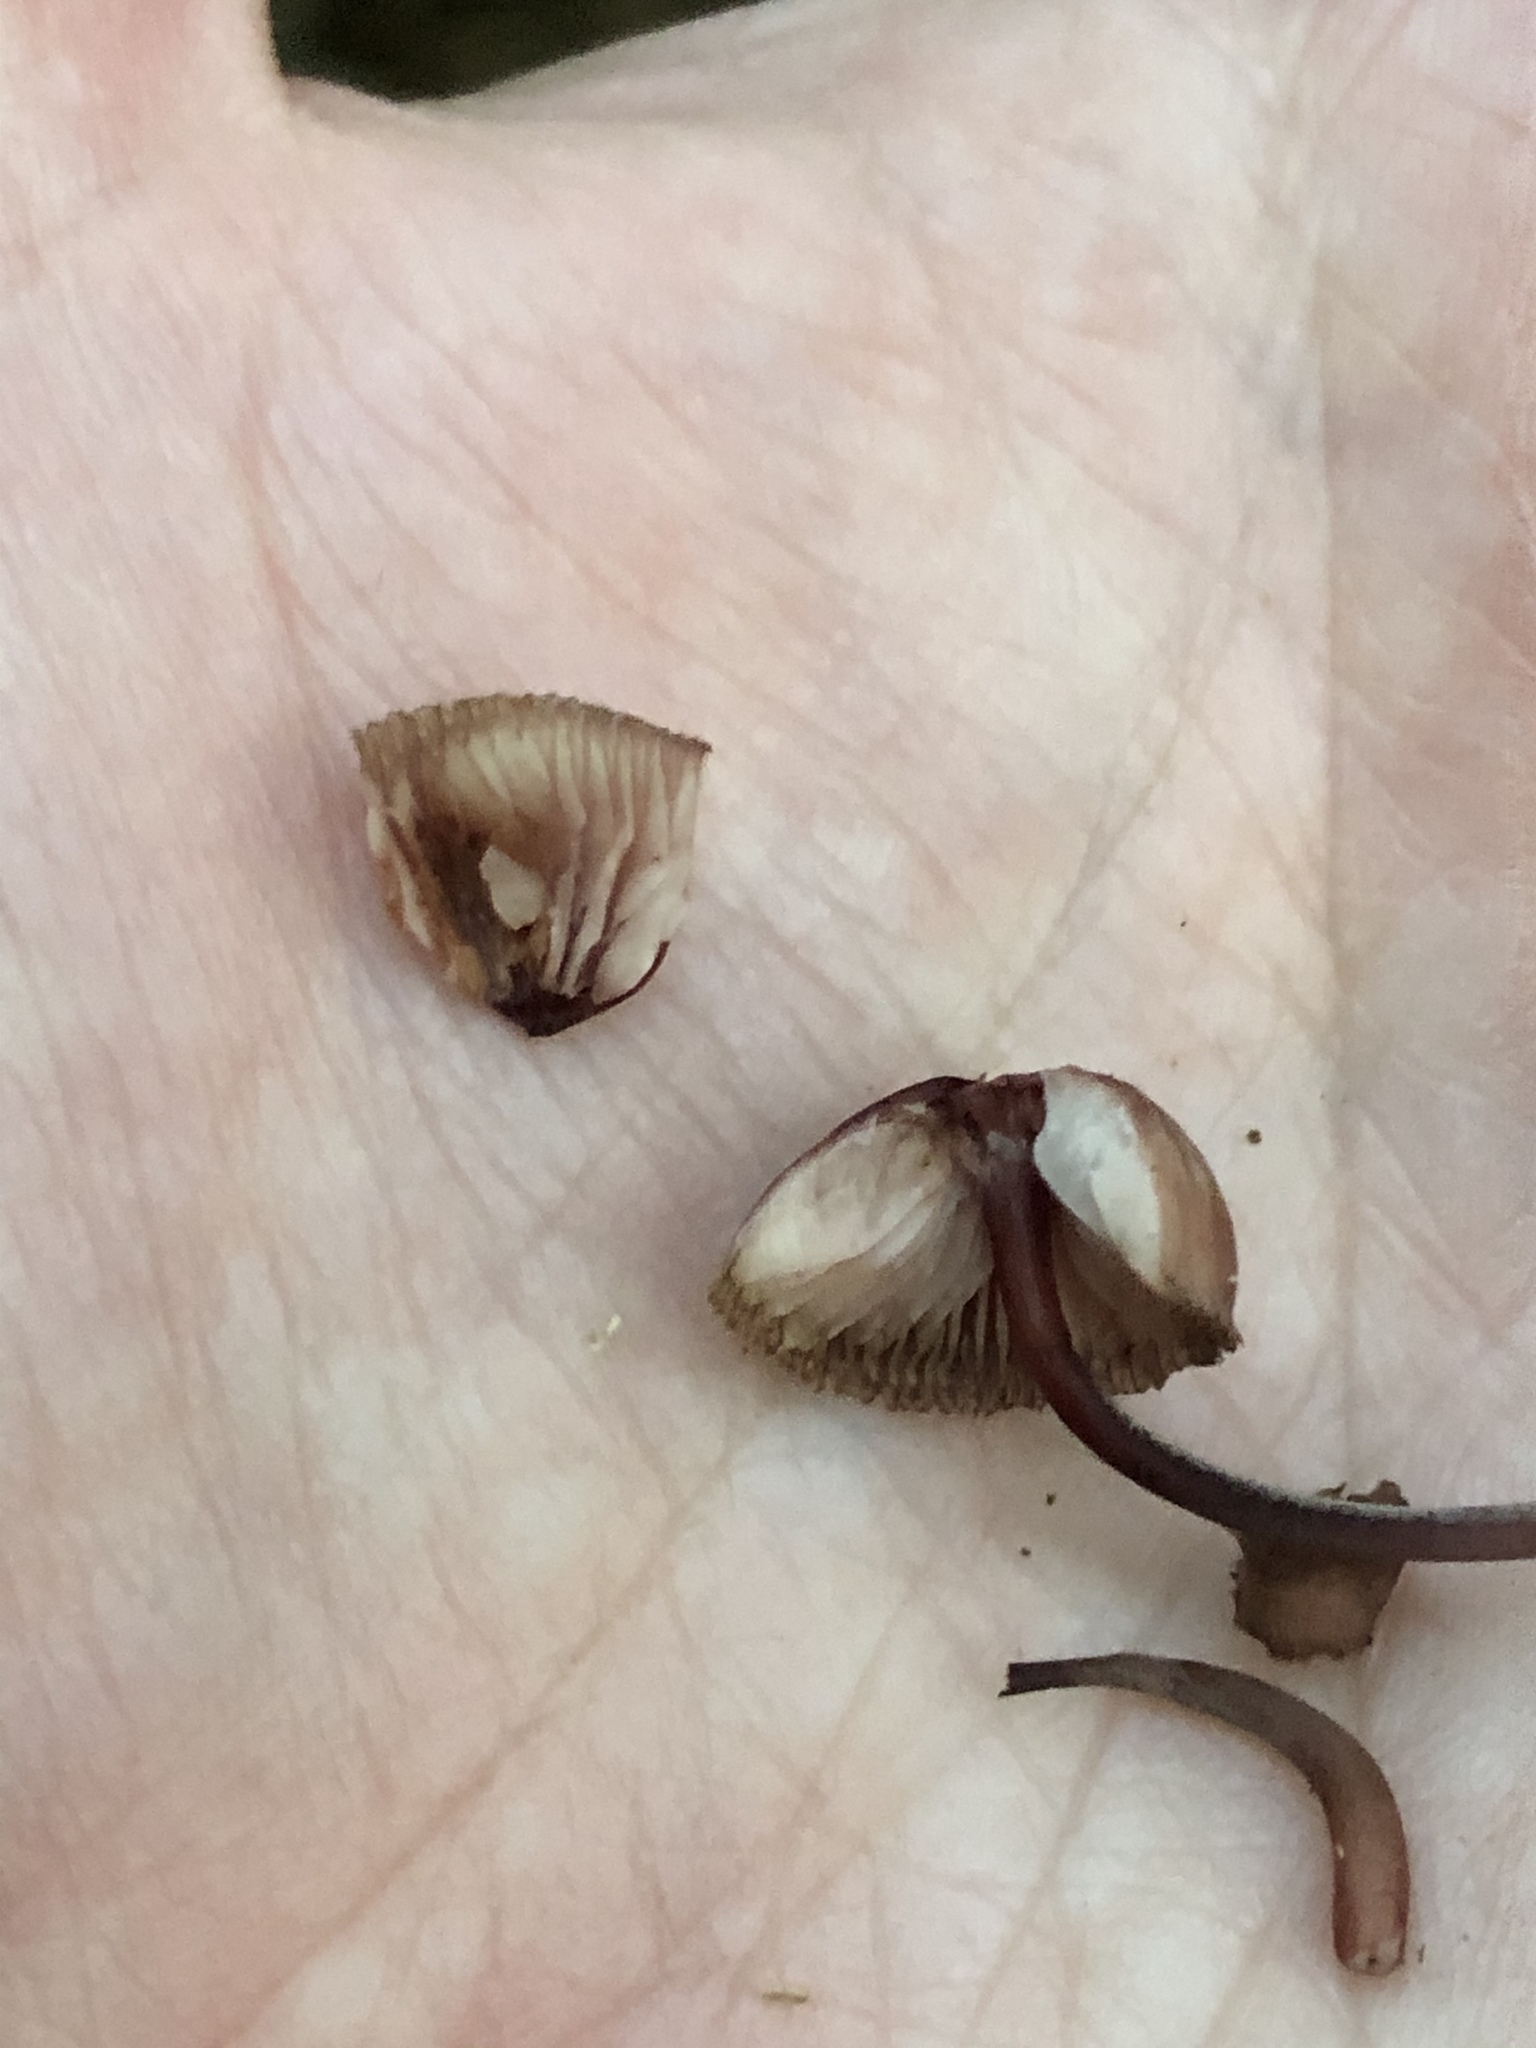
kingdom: Fungi
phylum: Basidiomycota
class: Agaricomycetes
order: Agaricales
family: Mycenaceae
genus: Mycena
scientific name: Mycena haematopus
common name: Burgundydrop bonnet
